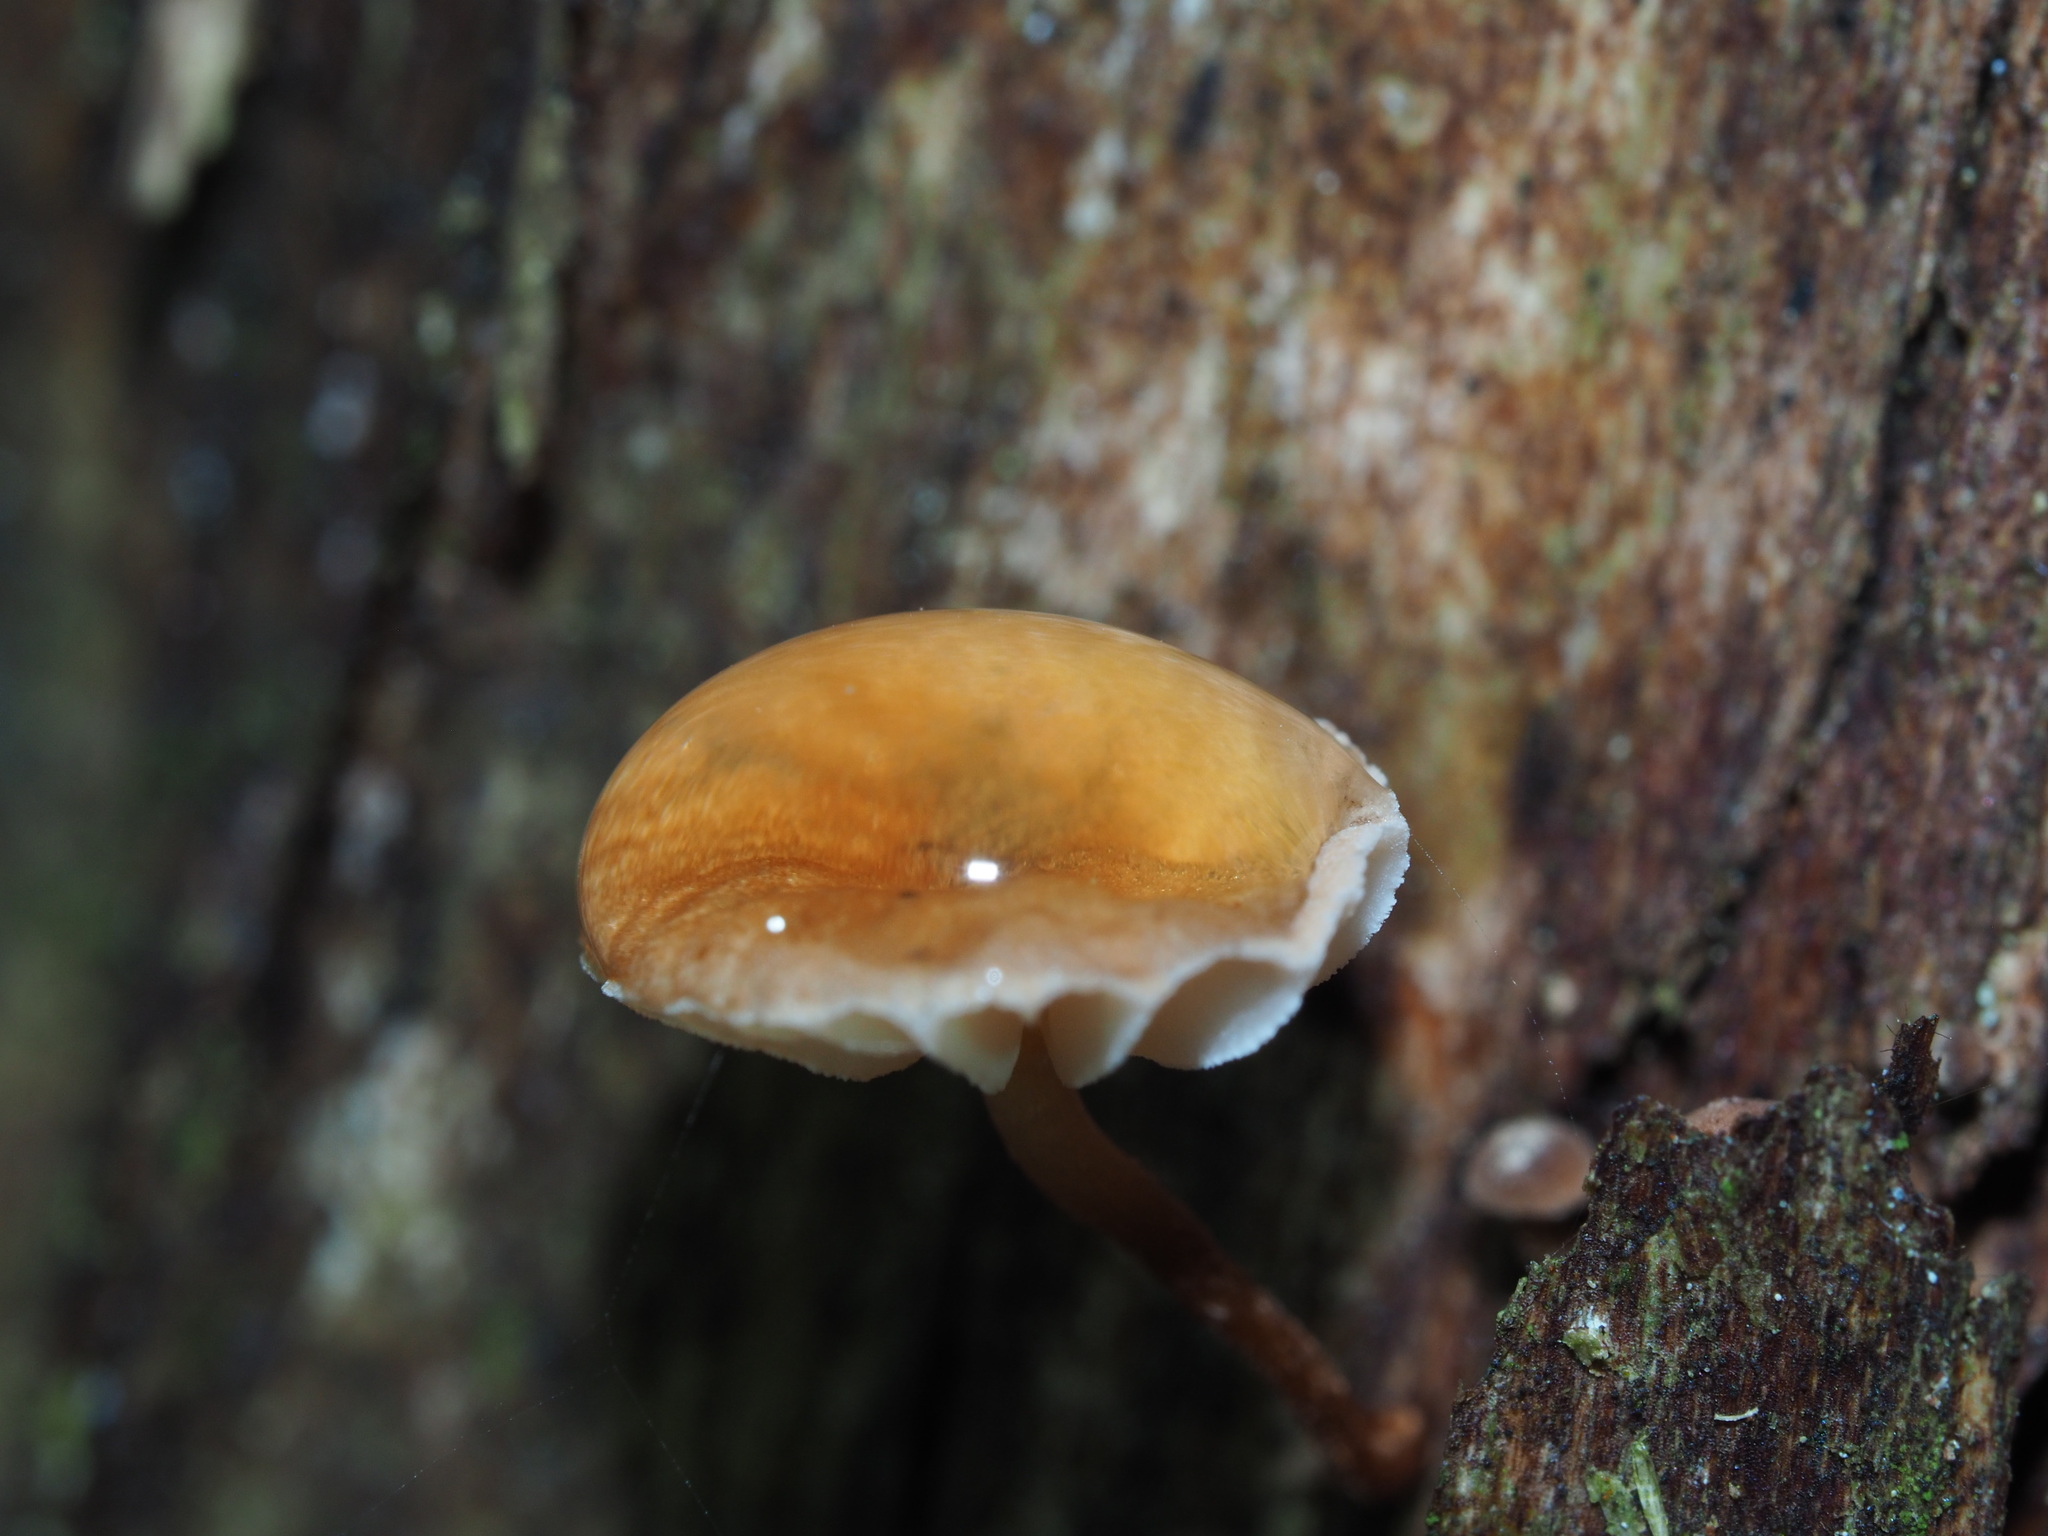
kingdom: Fungi
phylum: Basidiomycota
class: Agaricomycetes
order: Agaricales
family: Omphalotaceae
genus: Mycetinis
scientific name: Mycetinis curraniae
